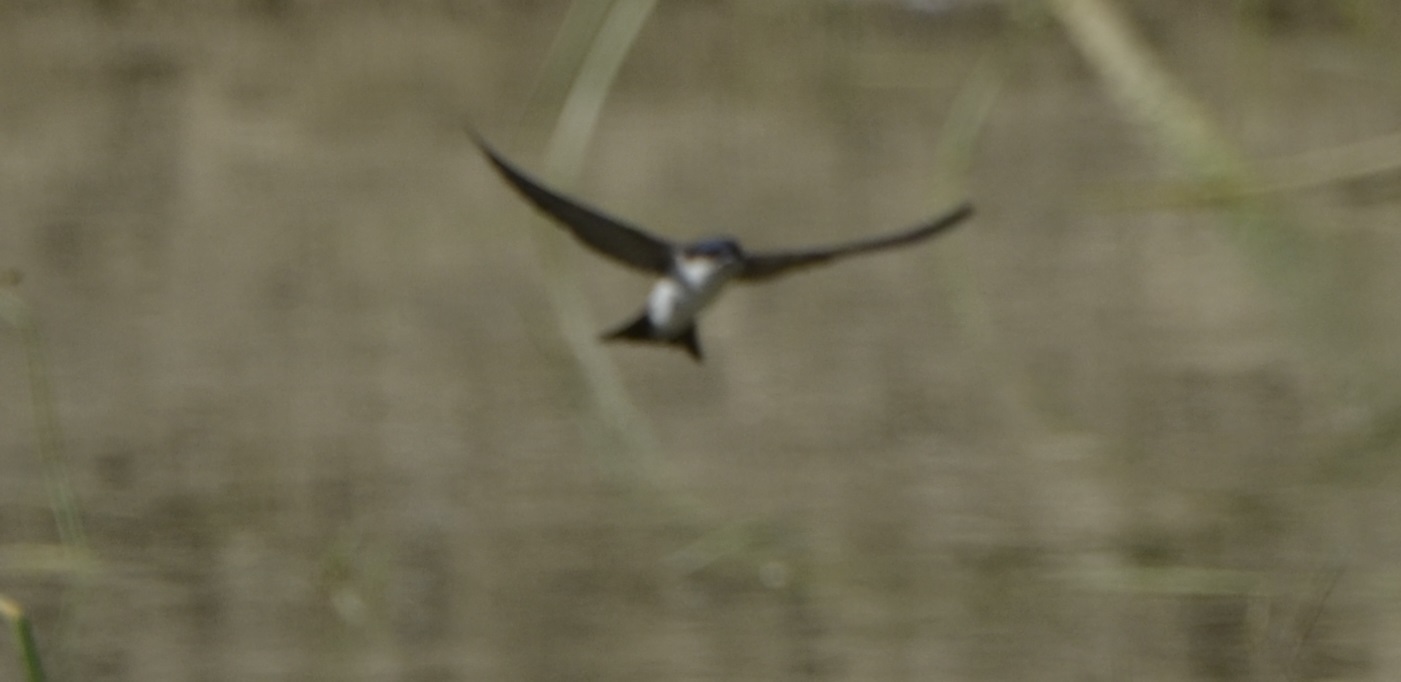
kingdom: Animalia
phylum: Chordata
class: Aves
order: Passeriformes
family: Hirundinidae
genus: Delichon
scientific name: Delichon urbicum
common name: Common house martin
